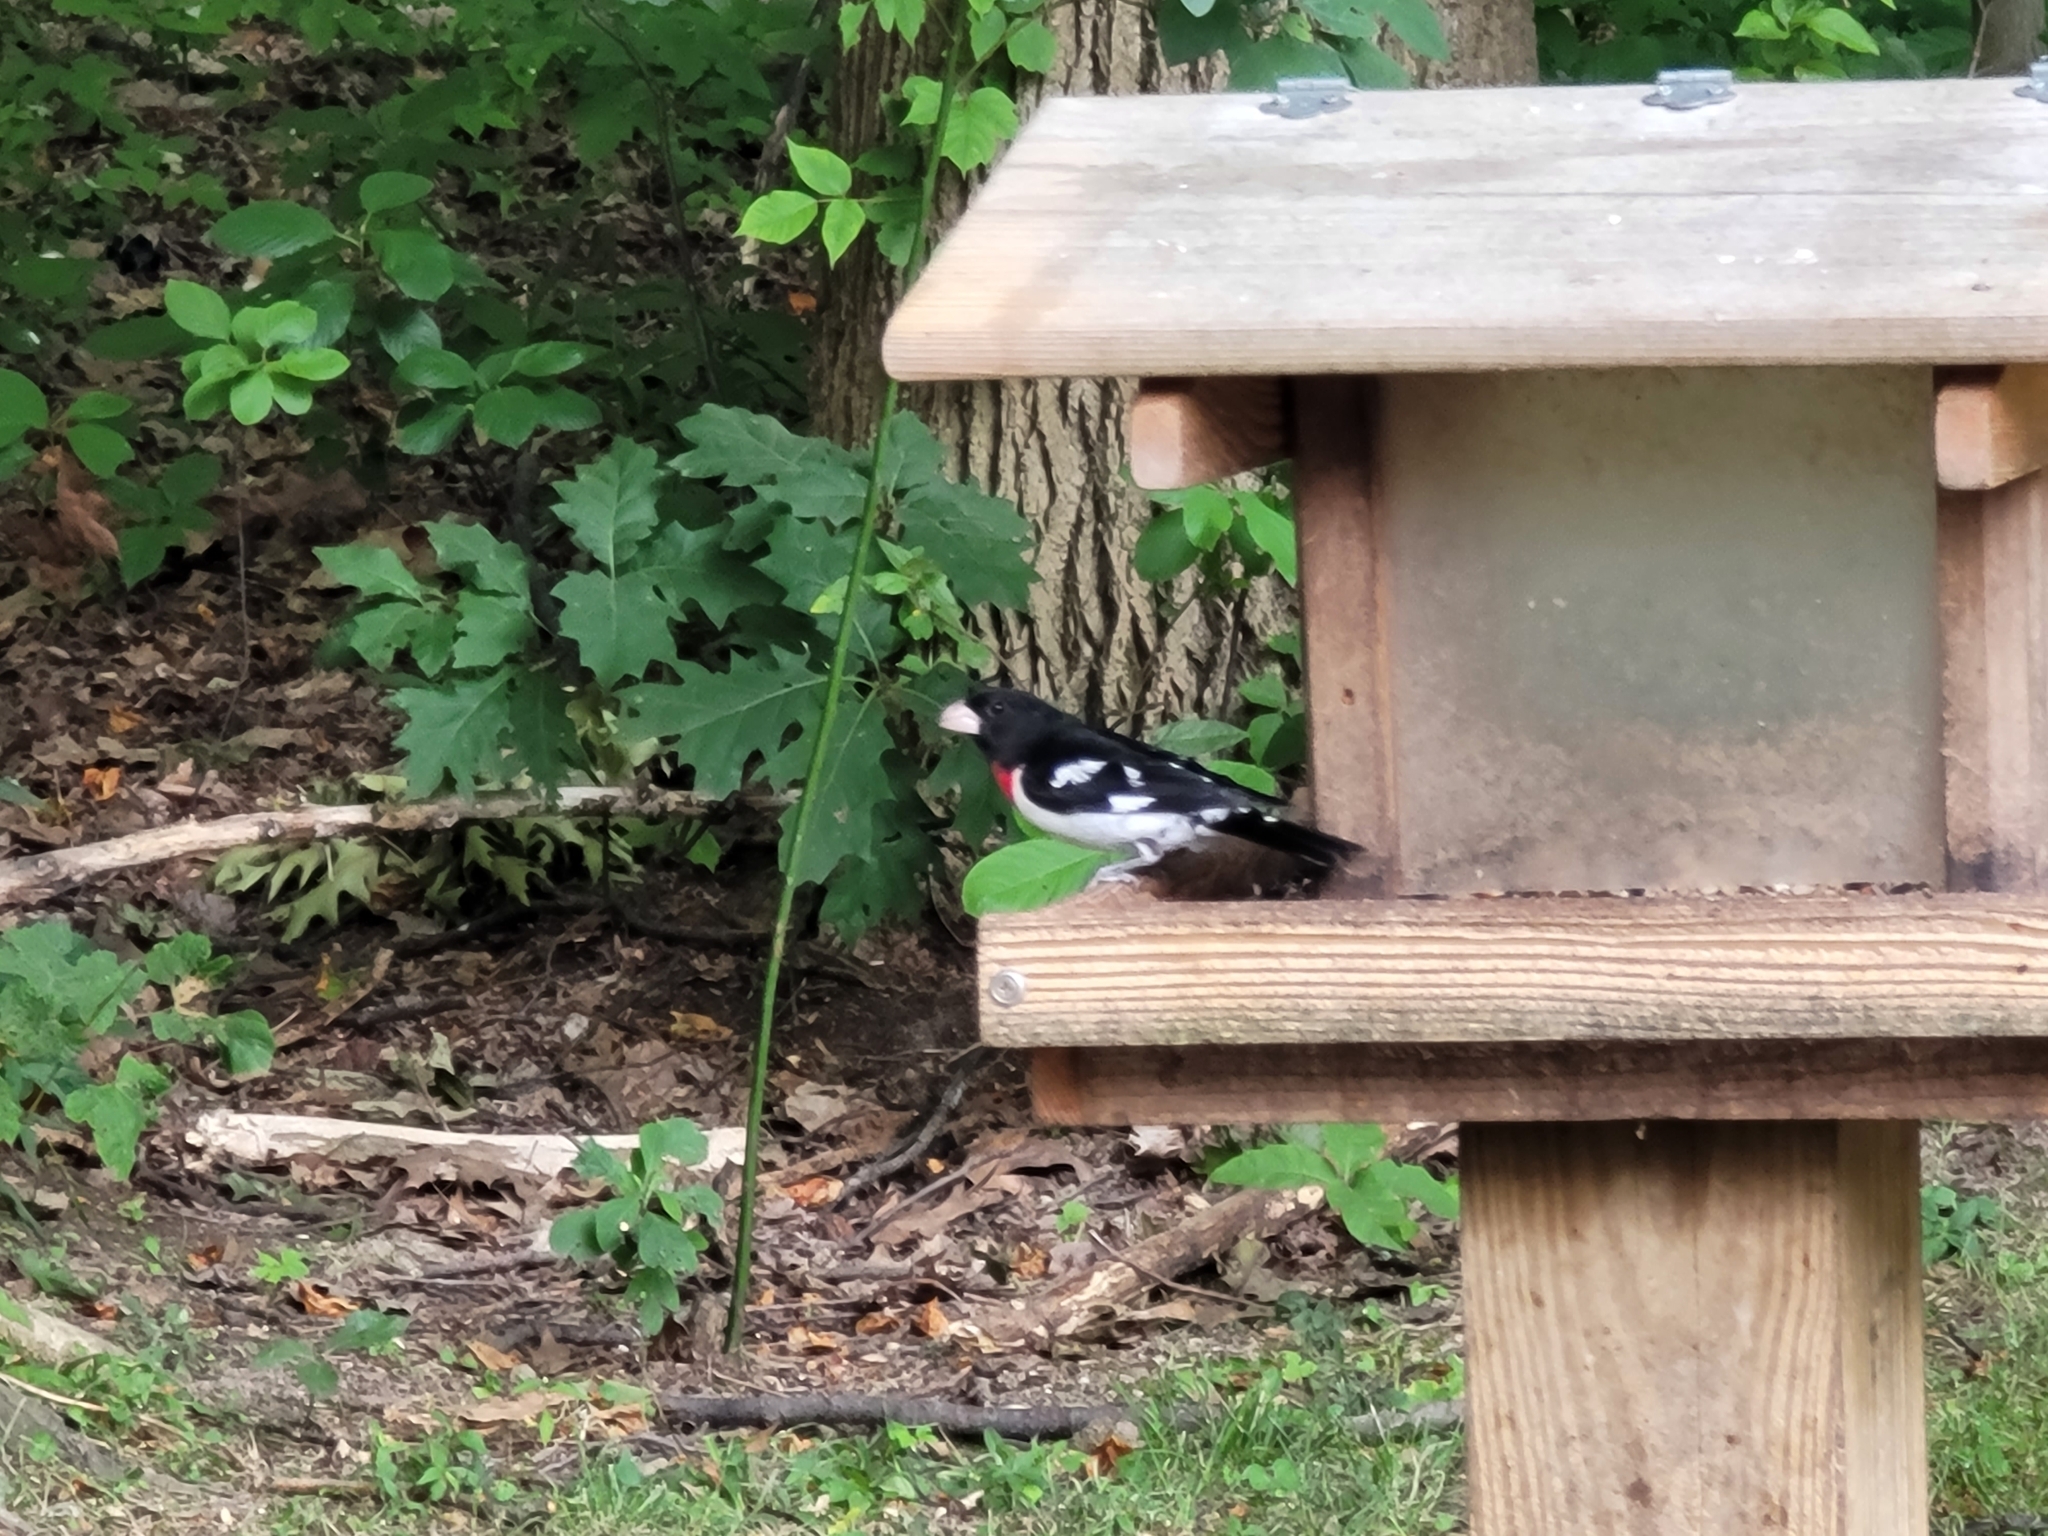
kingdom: Animalia
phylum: Chordata
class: Aves
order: Passeriformes
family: Cardinalidae
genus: Pheucticus
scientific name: Pheucticus ludovicianus
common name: Rose-breasted grosbeak
